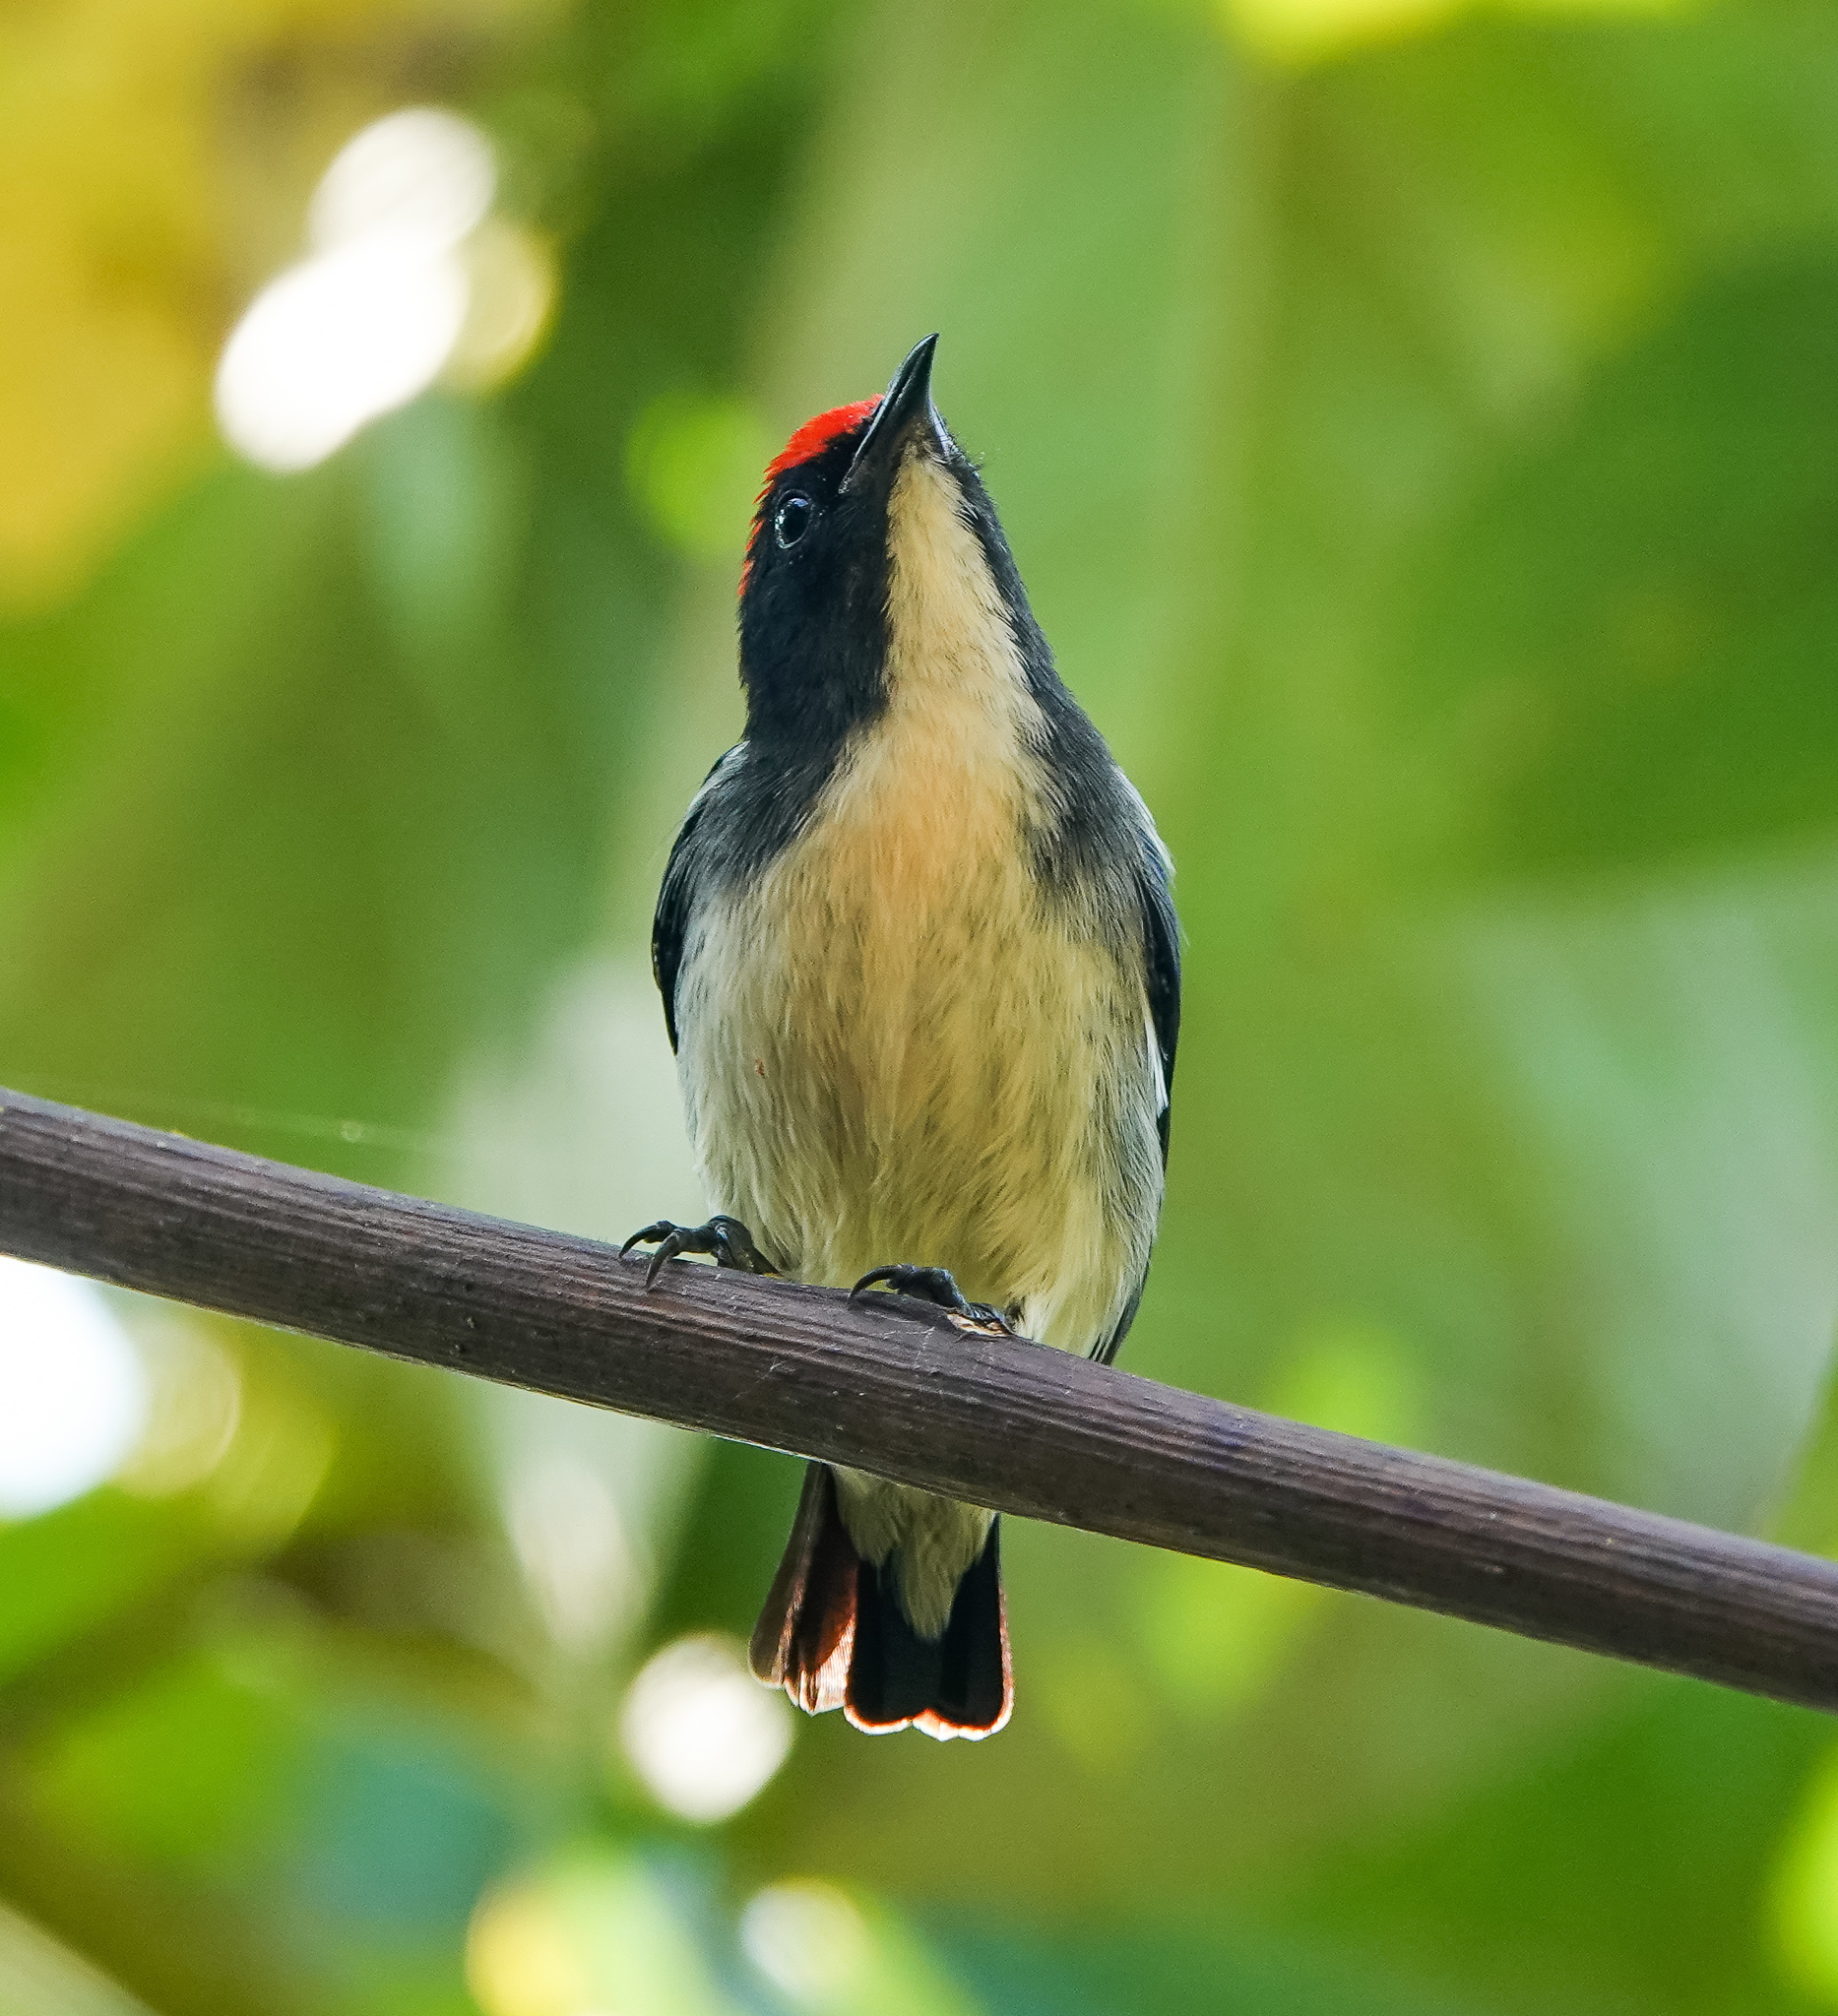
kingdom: Animalia
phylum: Chordata
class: Aves
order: Passeriformes
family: Dicaeidae
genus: Dicaeum
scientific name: Dicaeum cruentatum
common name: Scarlet-backed flowerpecker
